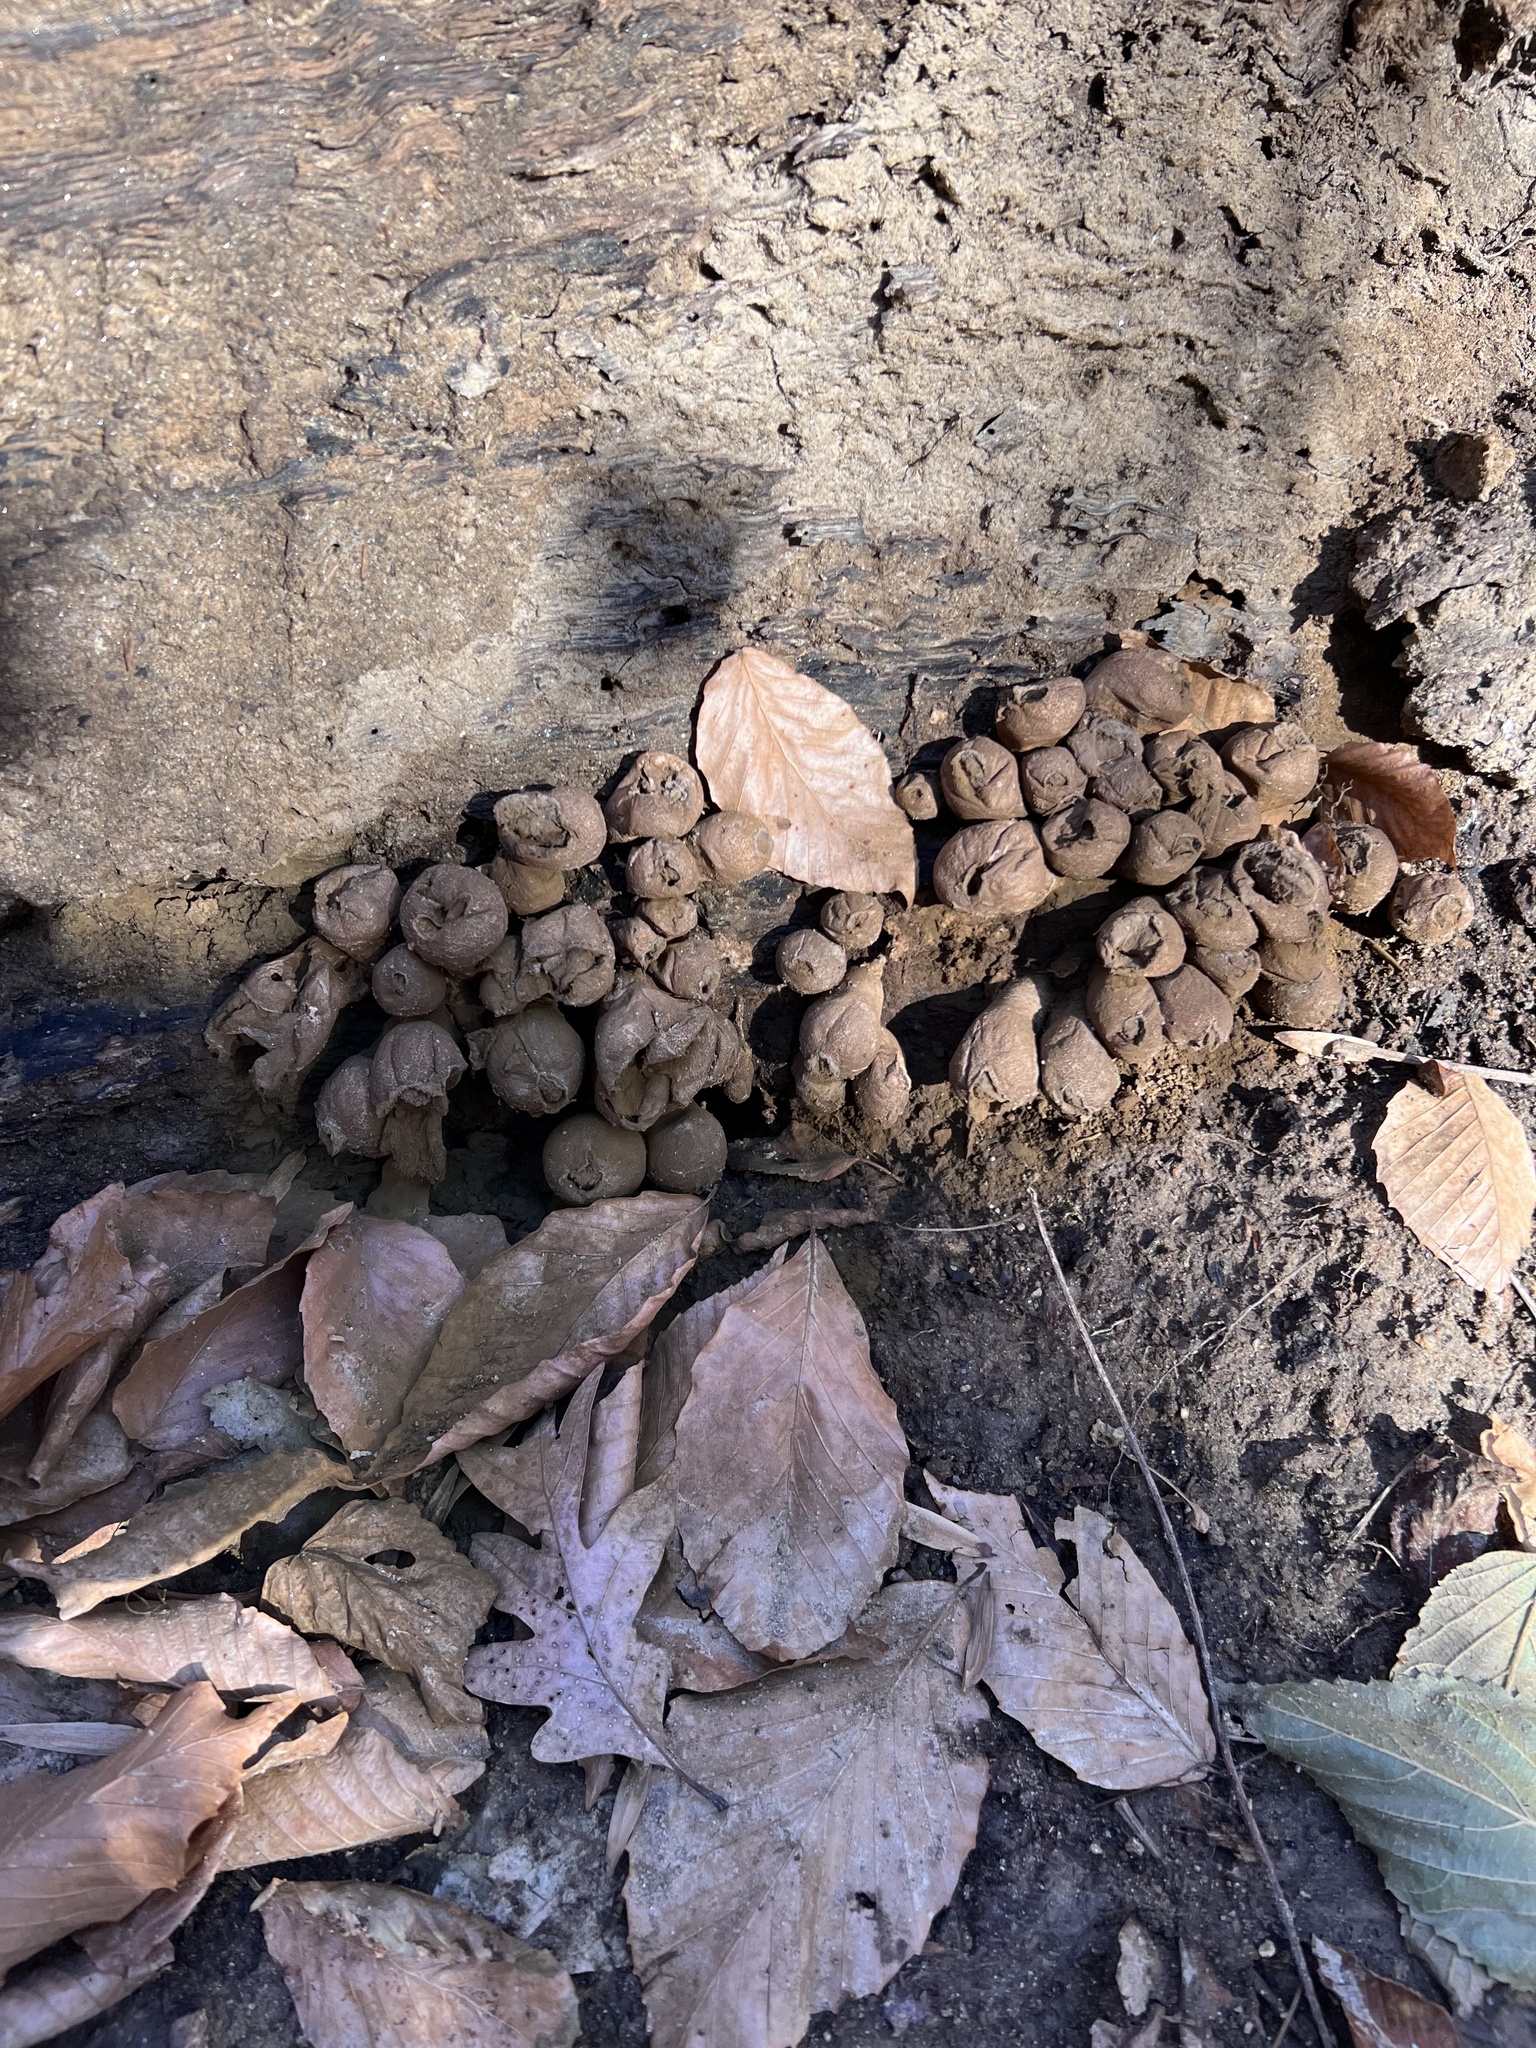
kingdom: Fungi
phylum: Basidiomycota
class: Agaricomycetes
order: Agaricales
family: Lycoperdaceae
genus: Apioperdon
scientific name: Apioperdon pyriforme
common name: Pear-shaped puffball
